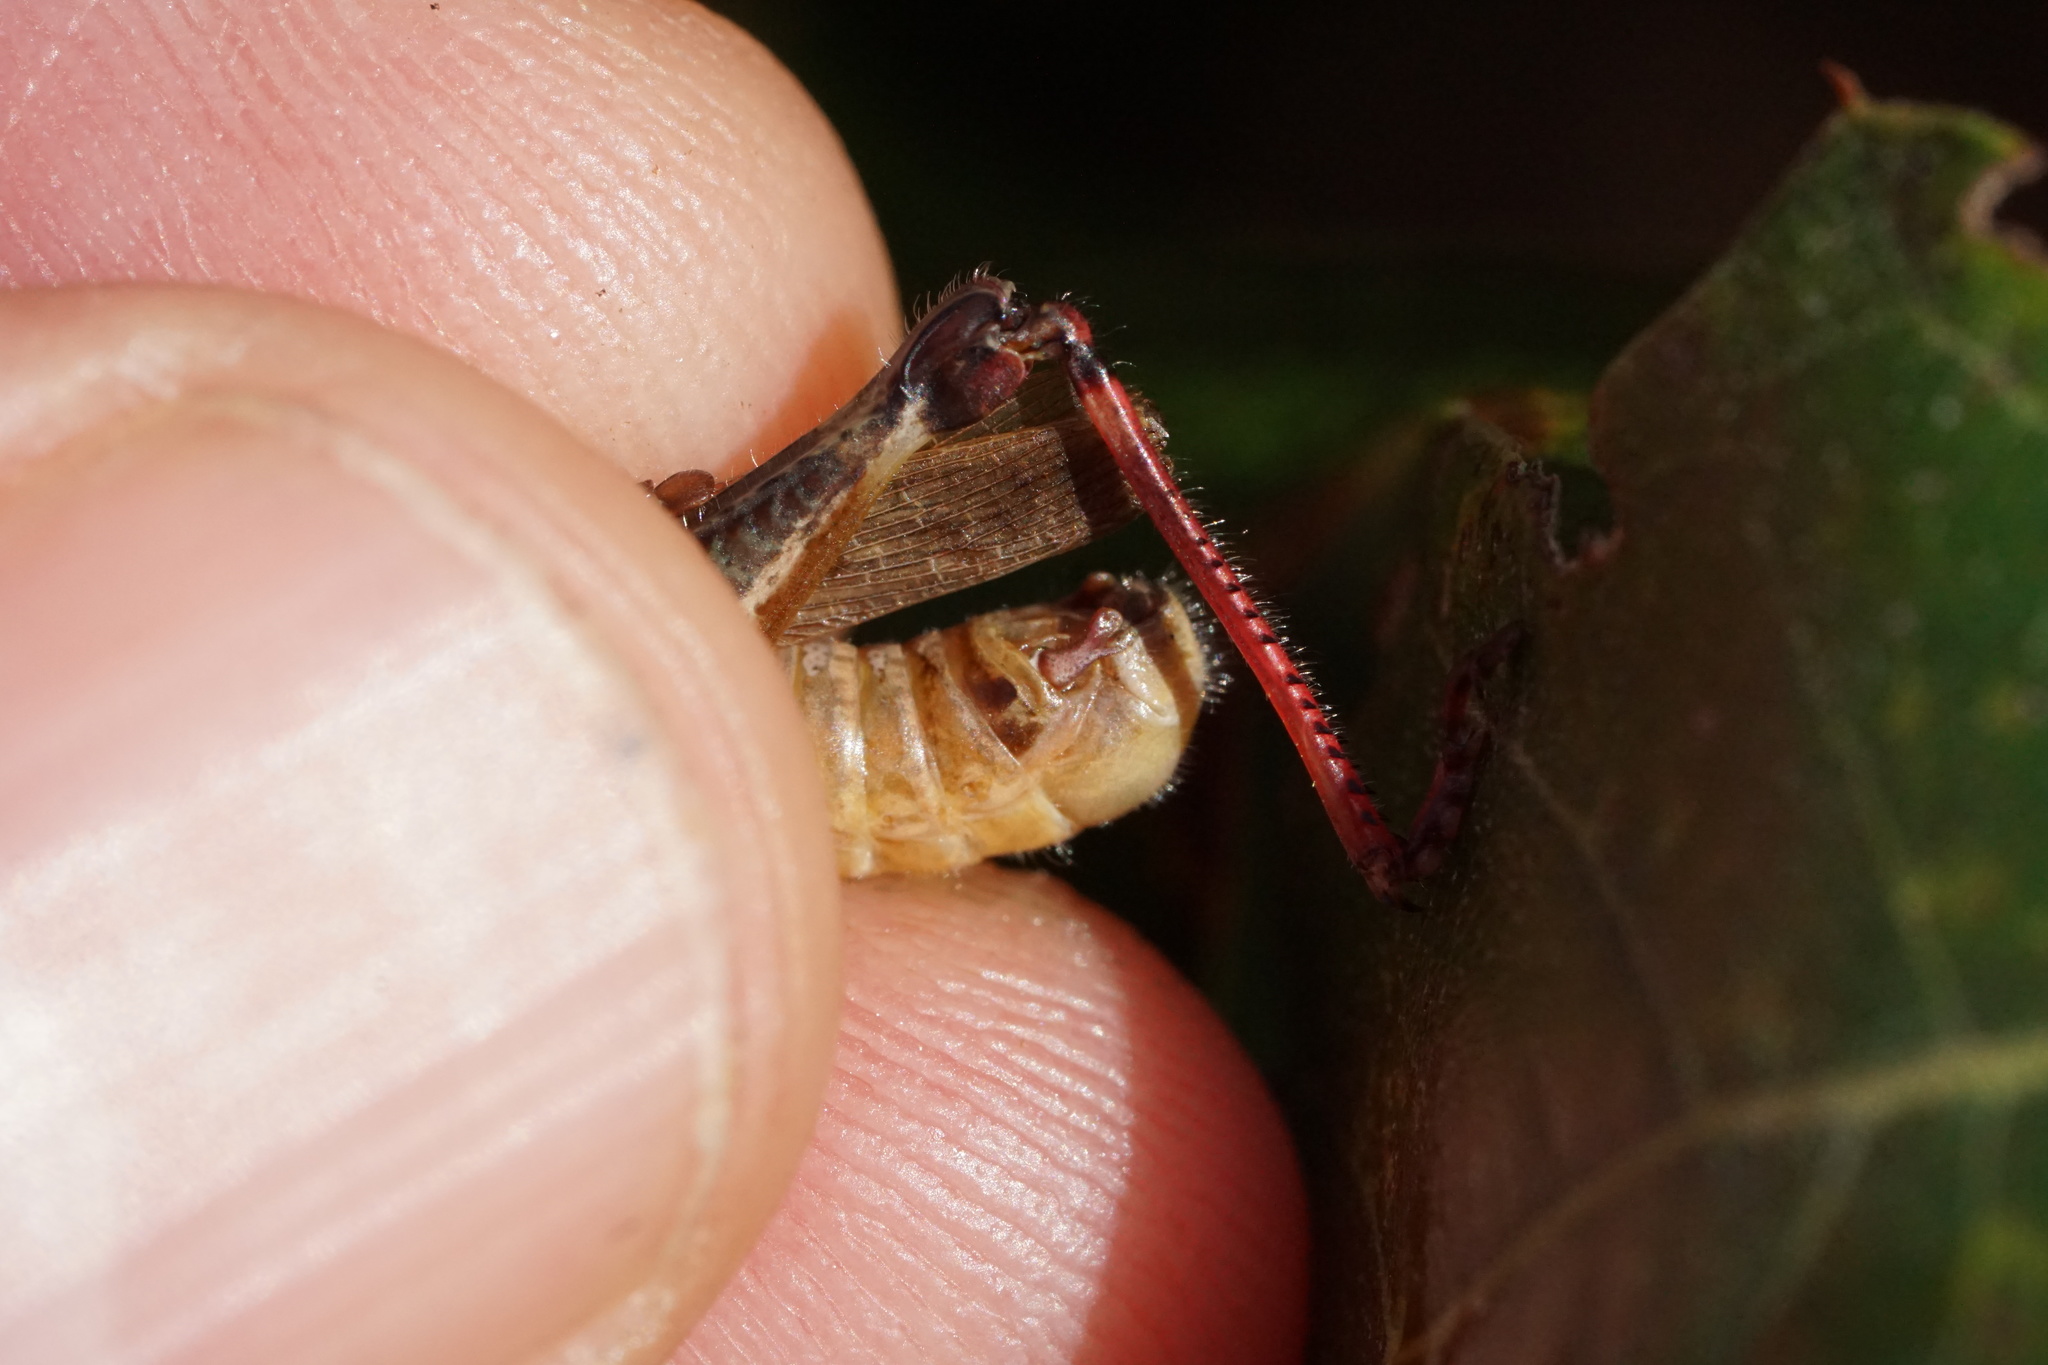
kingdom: Animalia
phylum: Arthropoda
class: Insecta
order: Orthoptera
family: Acrididae
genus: Melanoplus
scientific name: Melanoplus keeleri
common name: Keeler grasshopper
